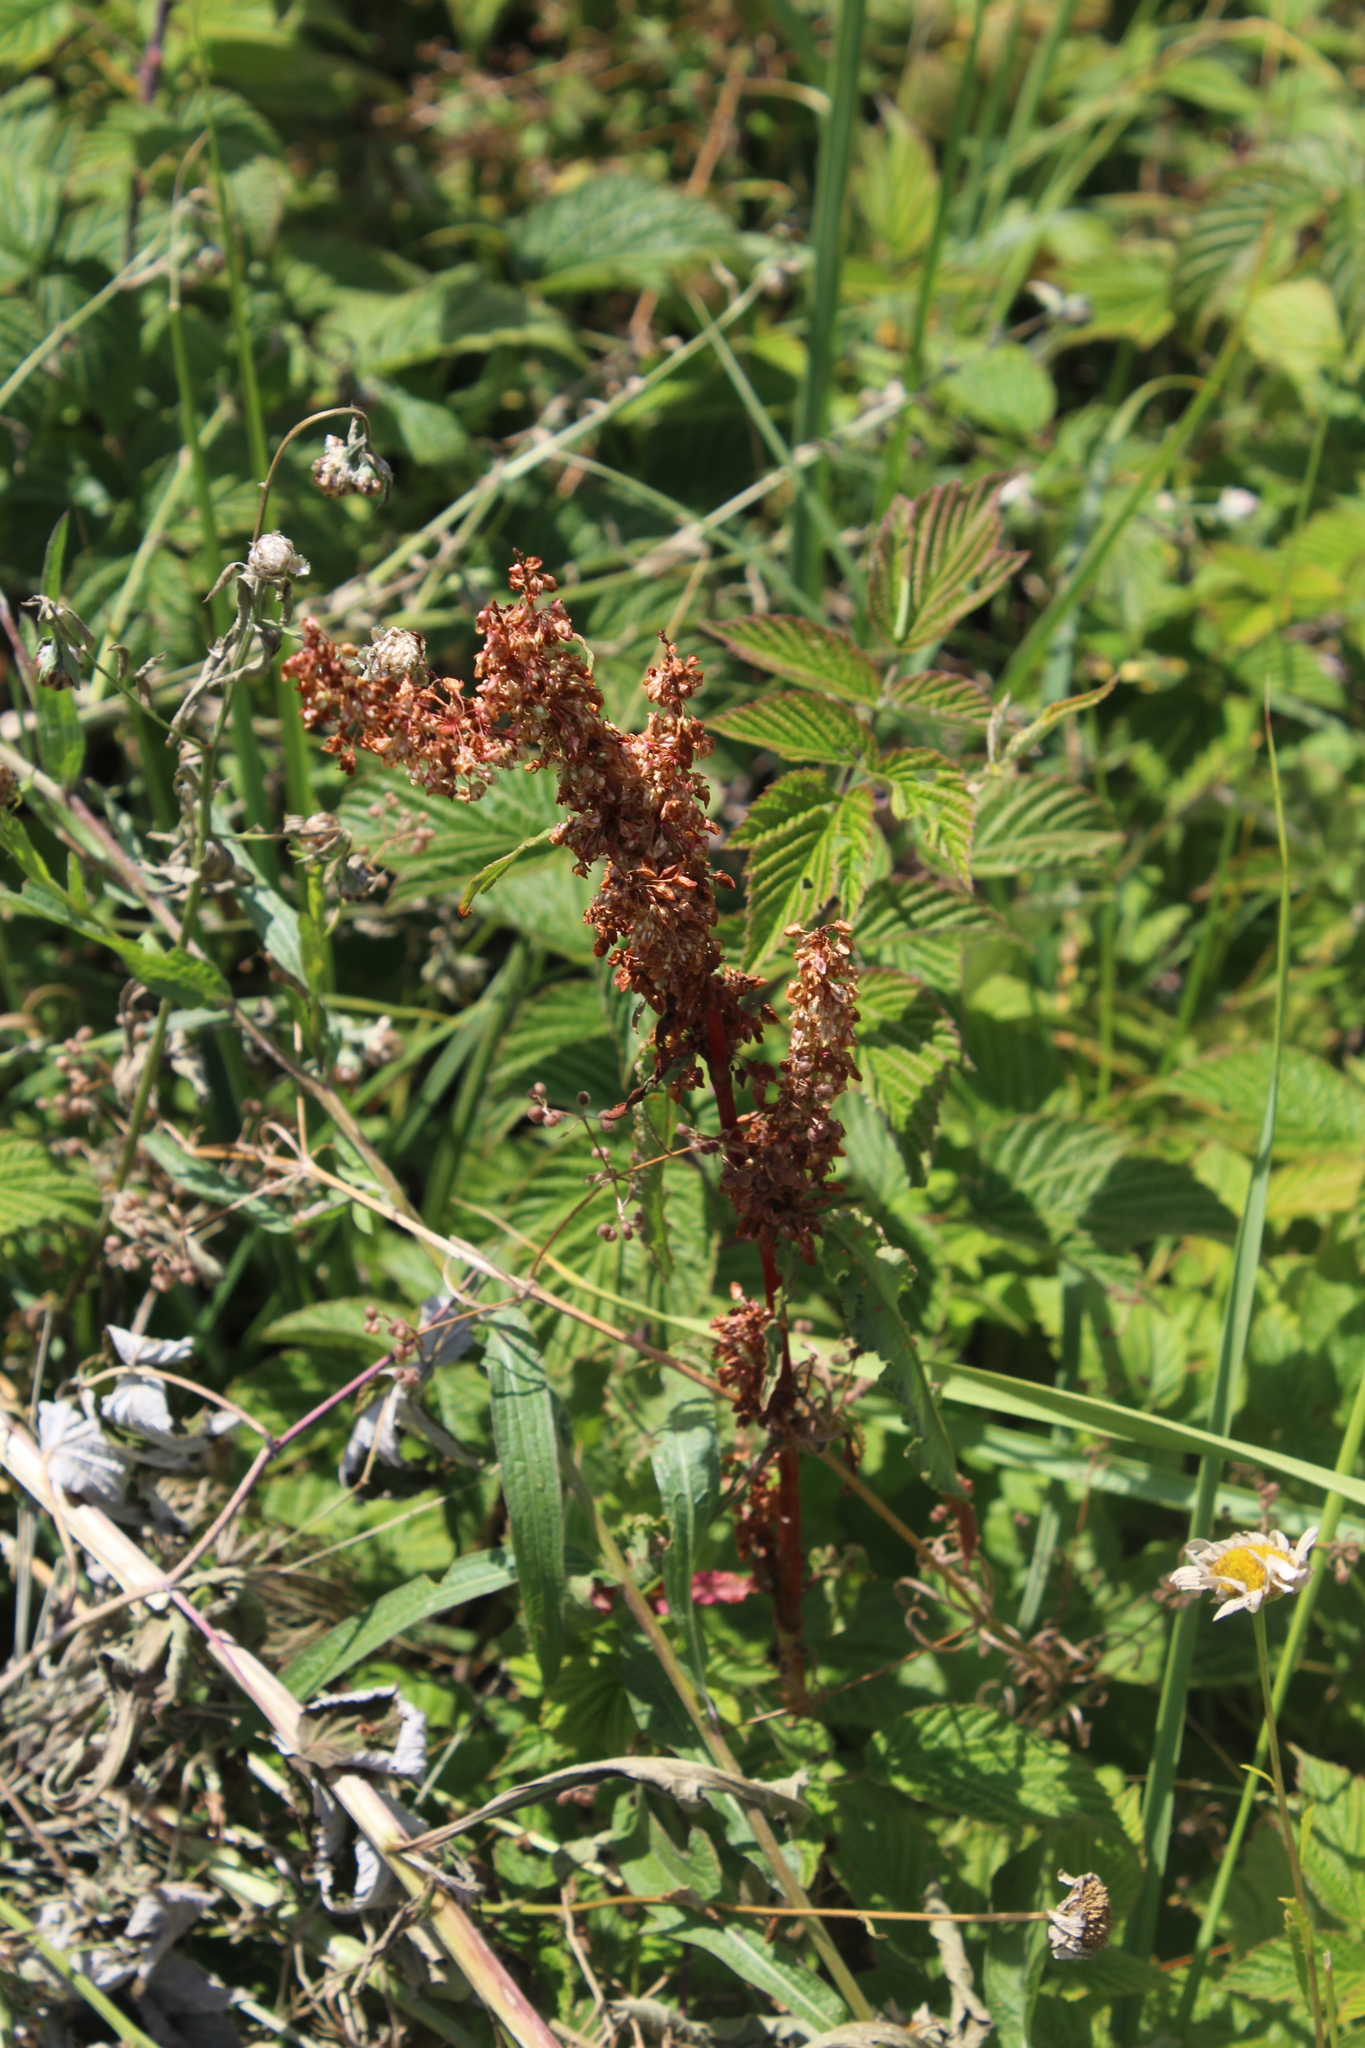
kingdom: Plantae
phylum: Tracheophyta
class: Magnoliopsida
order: Caryophyllales
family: Polygonaceae
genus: Rumex
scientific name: Rumex crispus
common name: Curled dock
